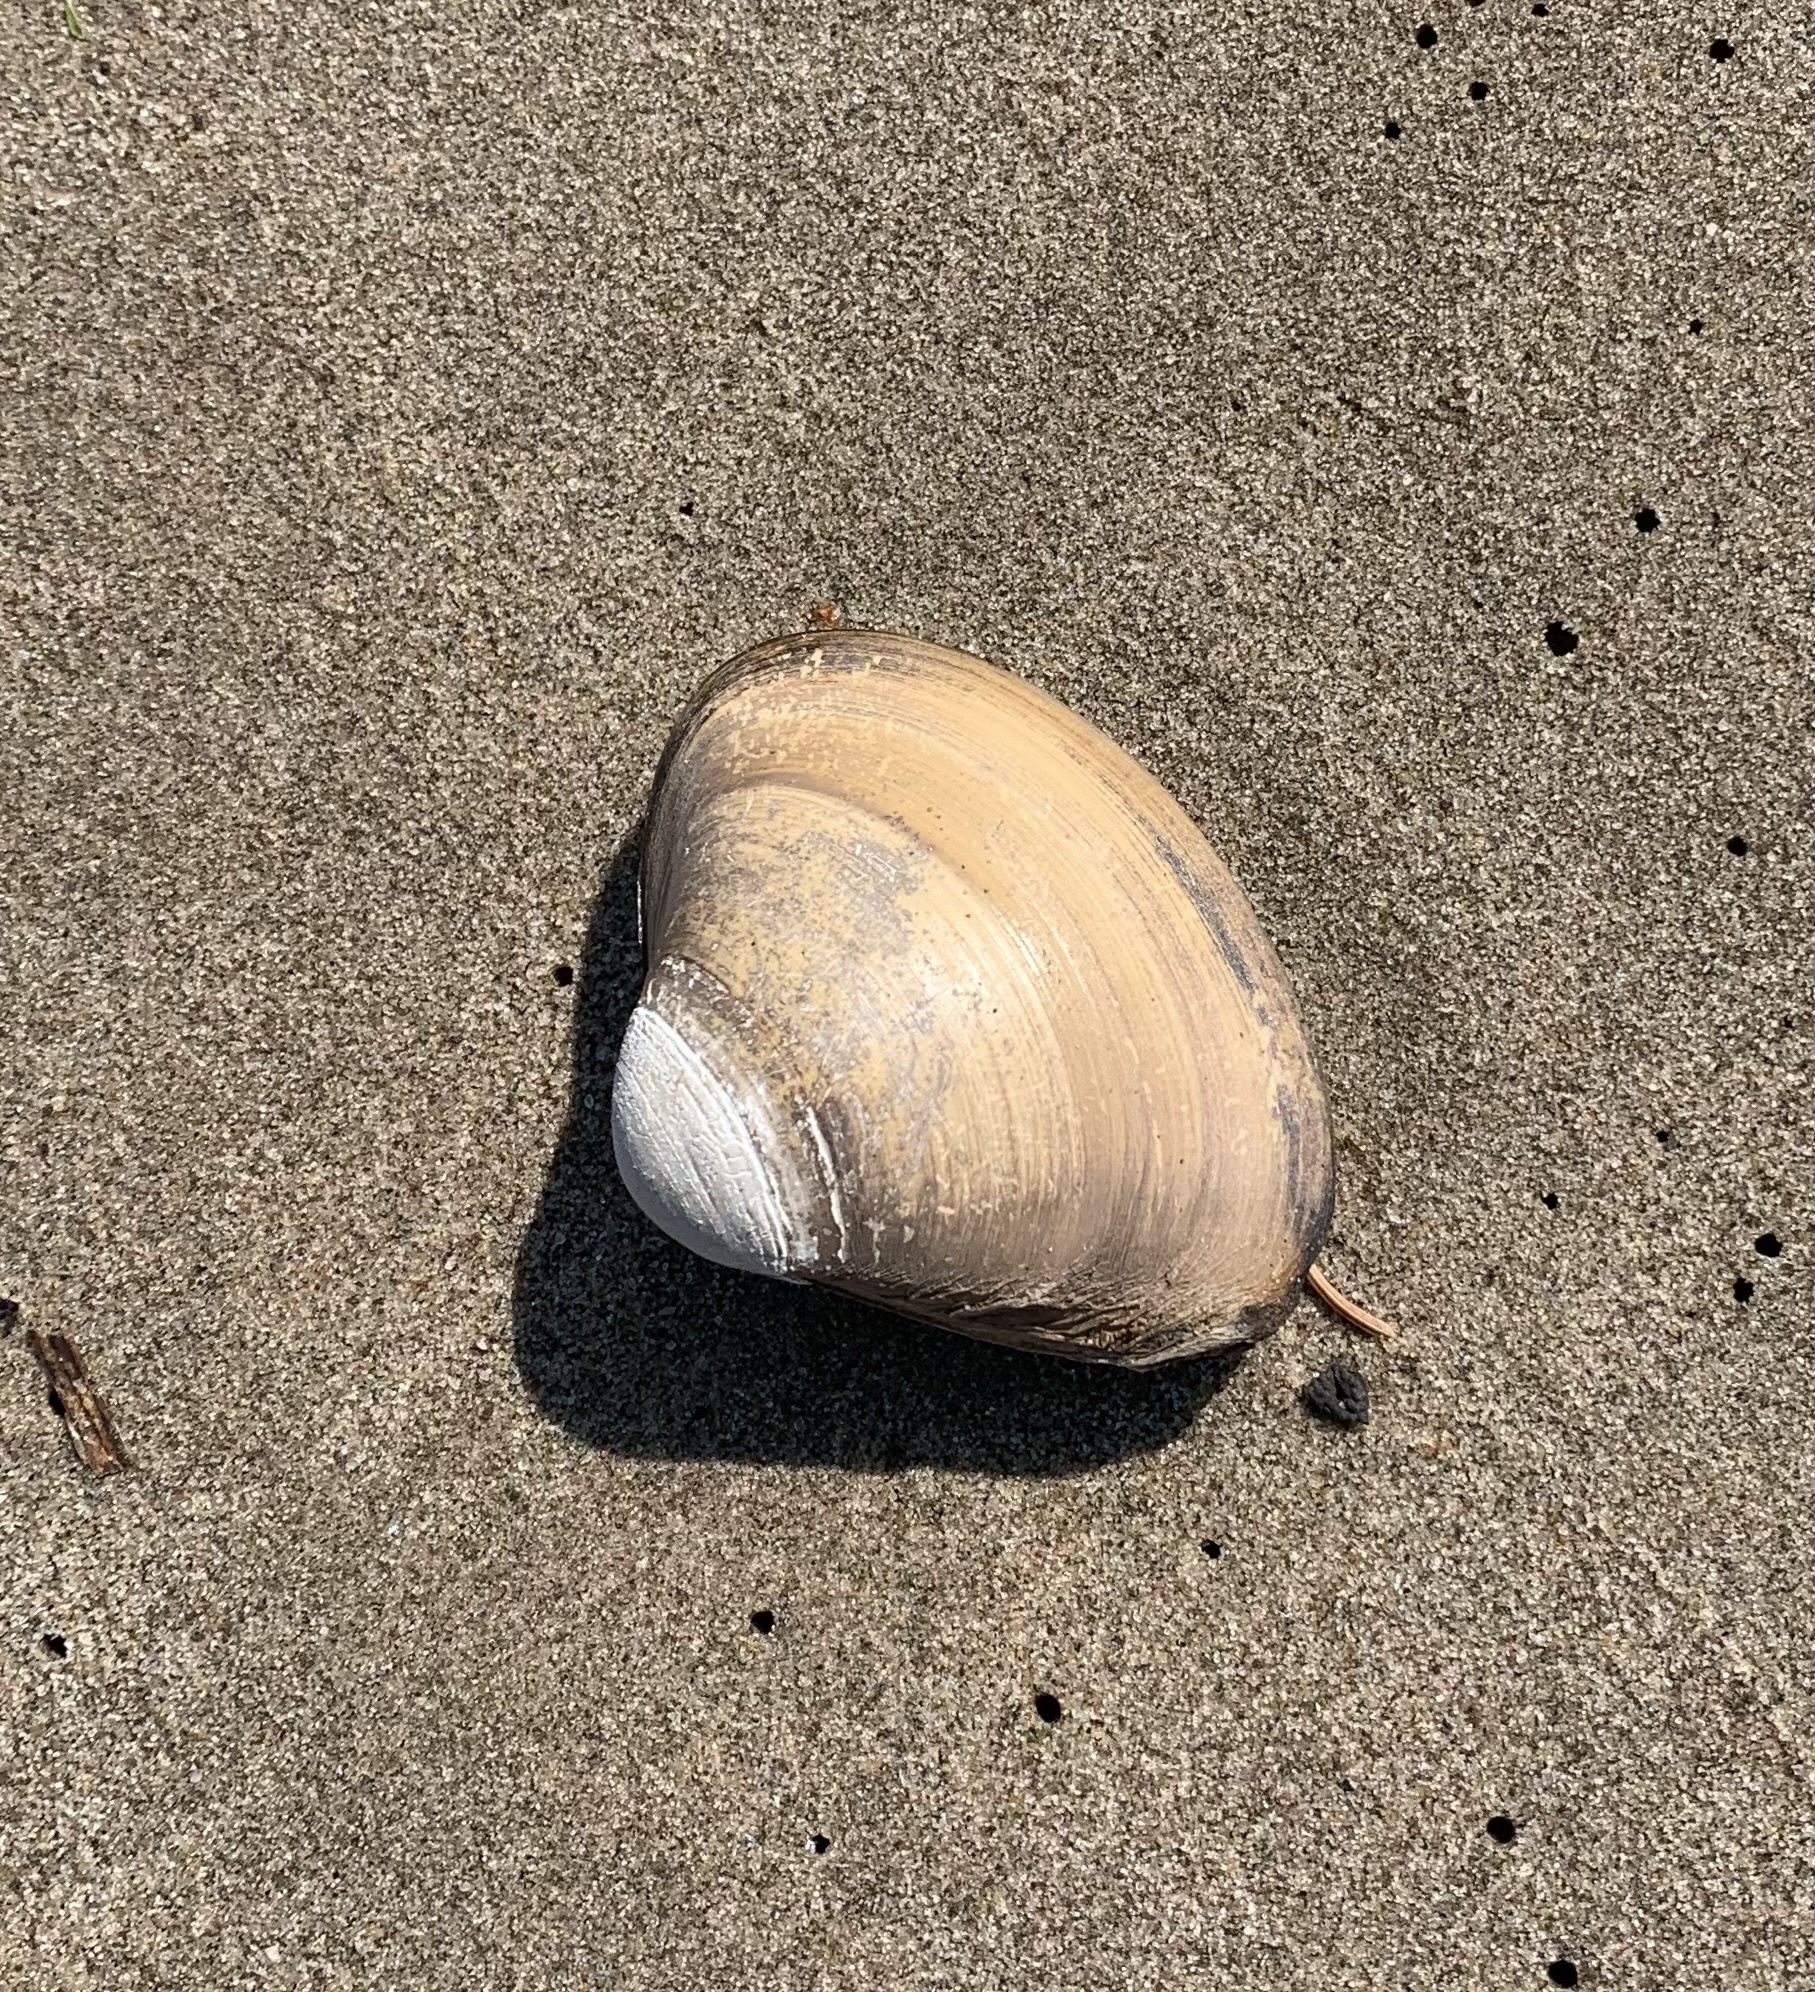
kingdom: Animalia
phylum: Mollusca
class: Bivalvia
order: Venerida
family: Mactridae
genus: Spisula
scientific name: Spisula solidissima
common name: Atlantic surf clam
